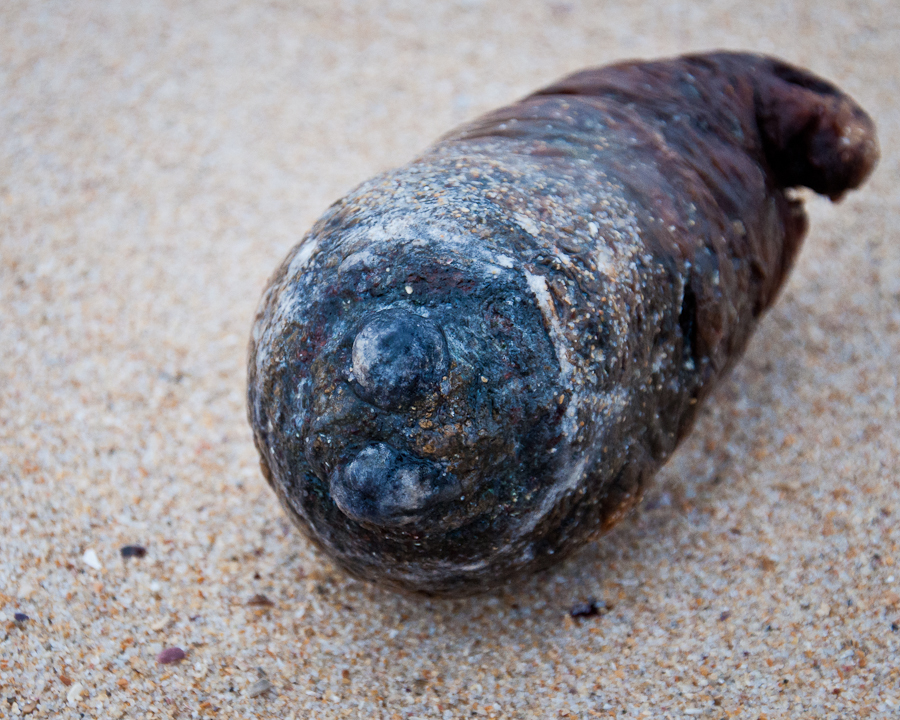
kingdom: Animalia
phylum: Chordata
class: Ascidiacea
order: Stolidobranchia
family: Pyuridae
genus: Pyura
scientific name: Pyura stolonifera
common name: Red bait
